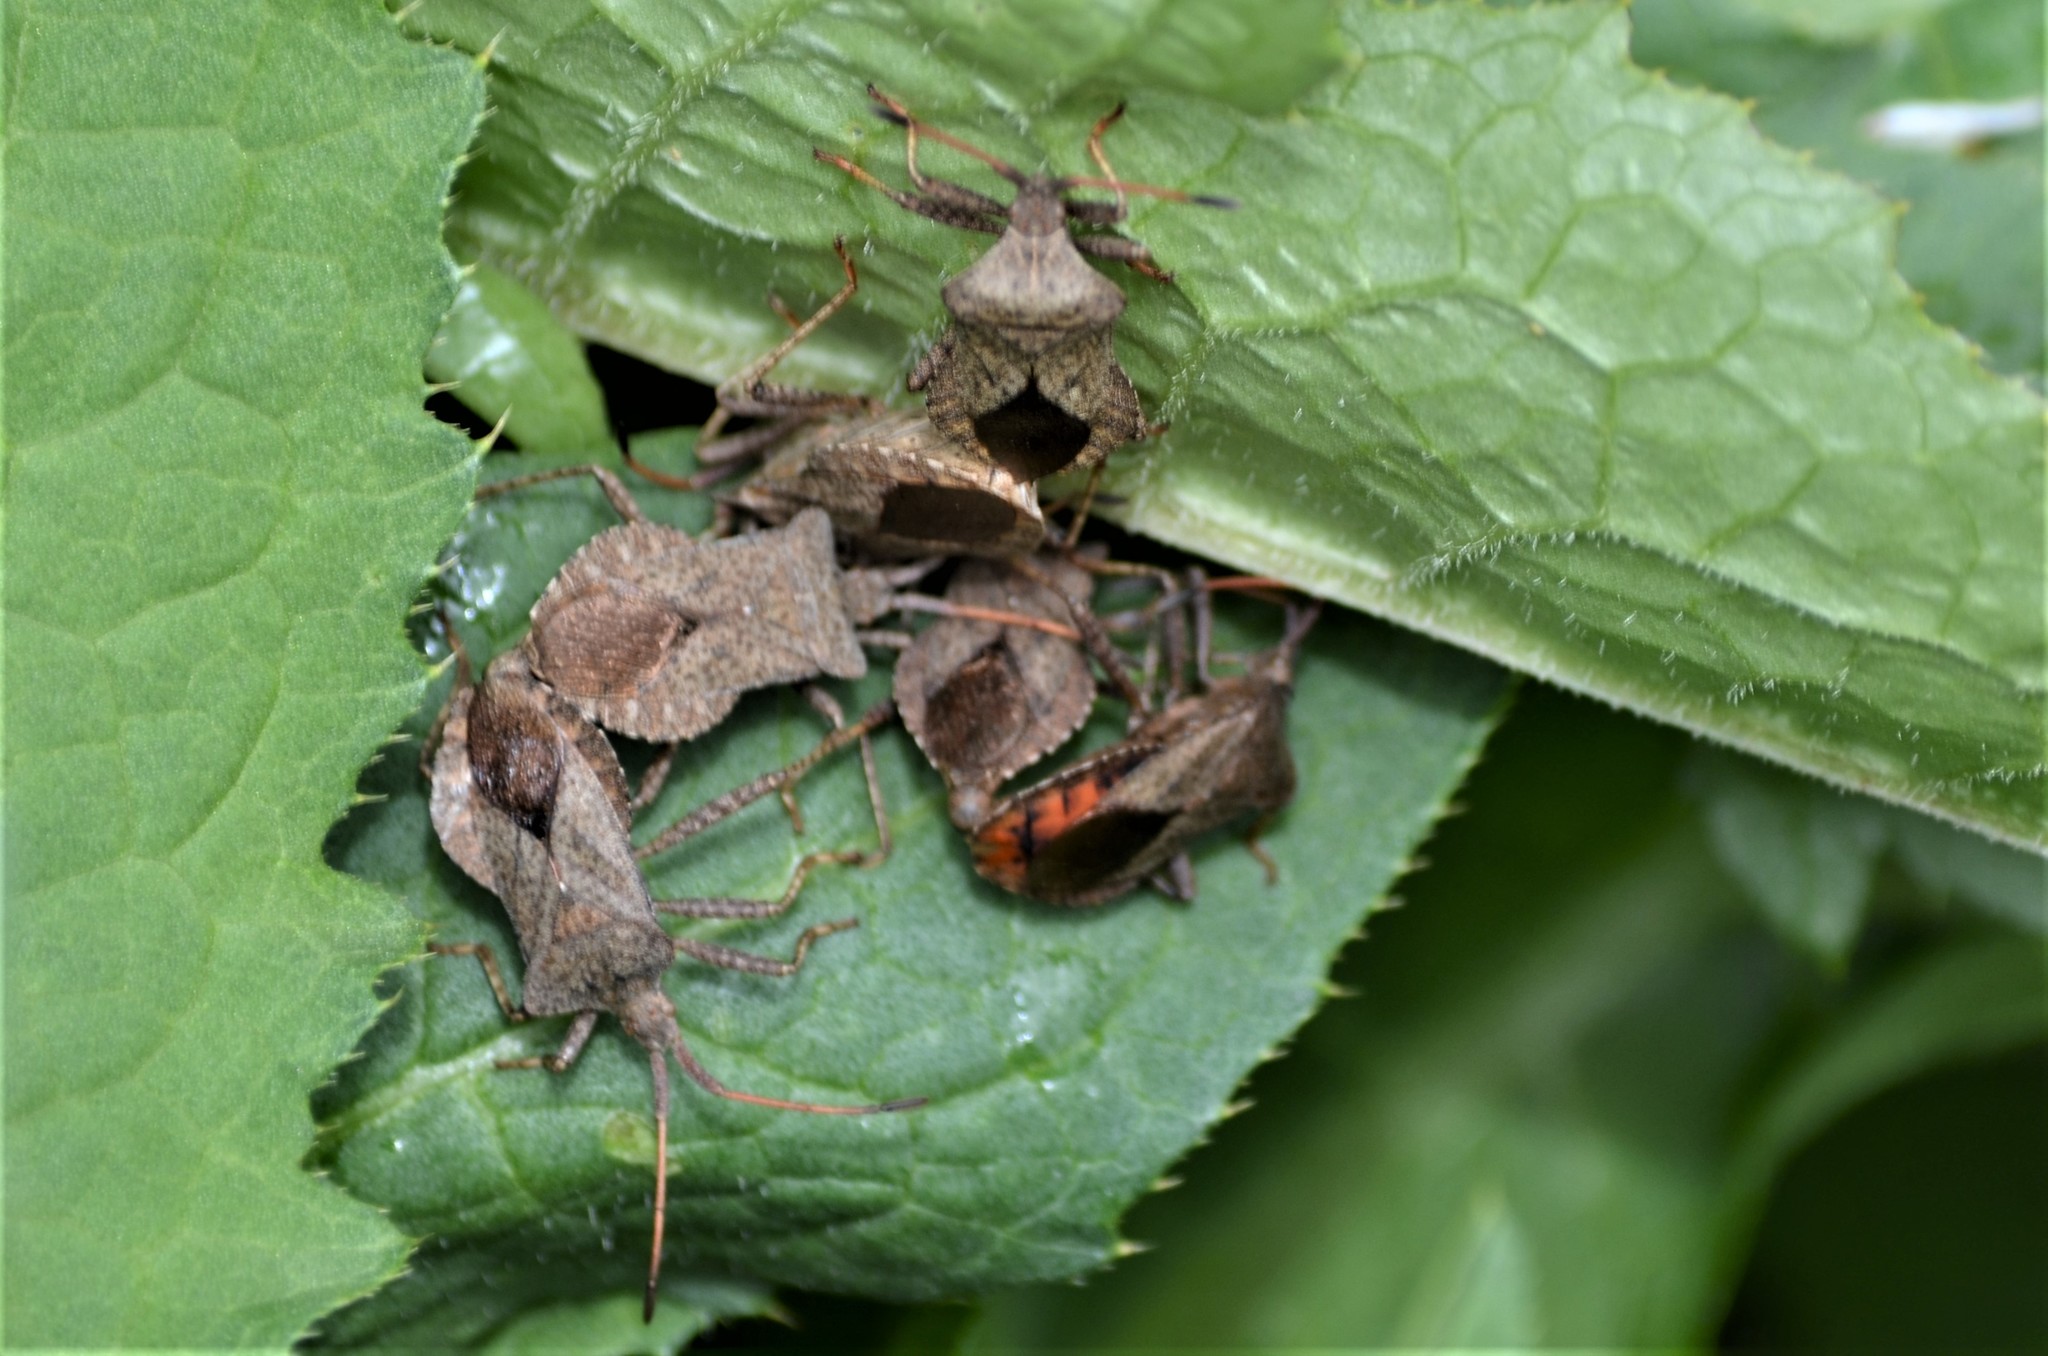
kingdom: Animalia
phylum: Arthropoda
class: Insecta
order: Hemiptera
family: Coreidae
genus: Coreus
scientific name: Coreus marginatus
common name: Dock bug
